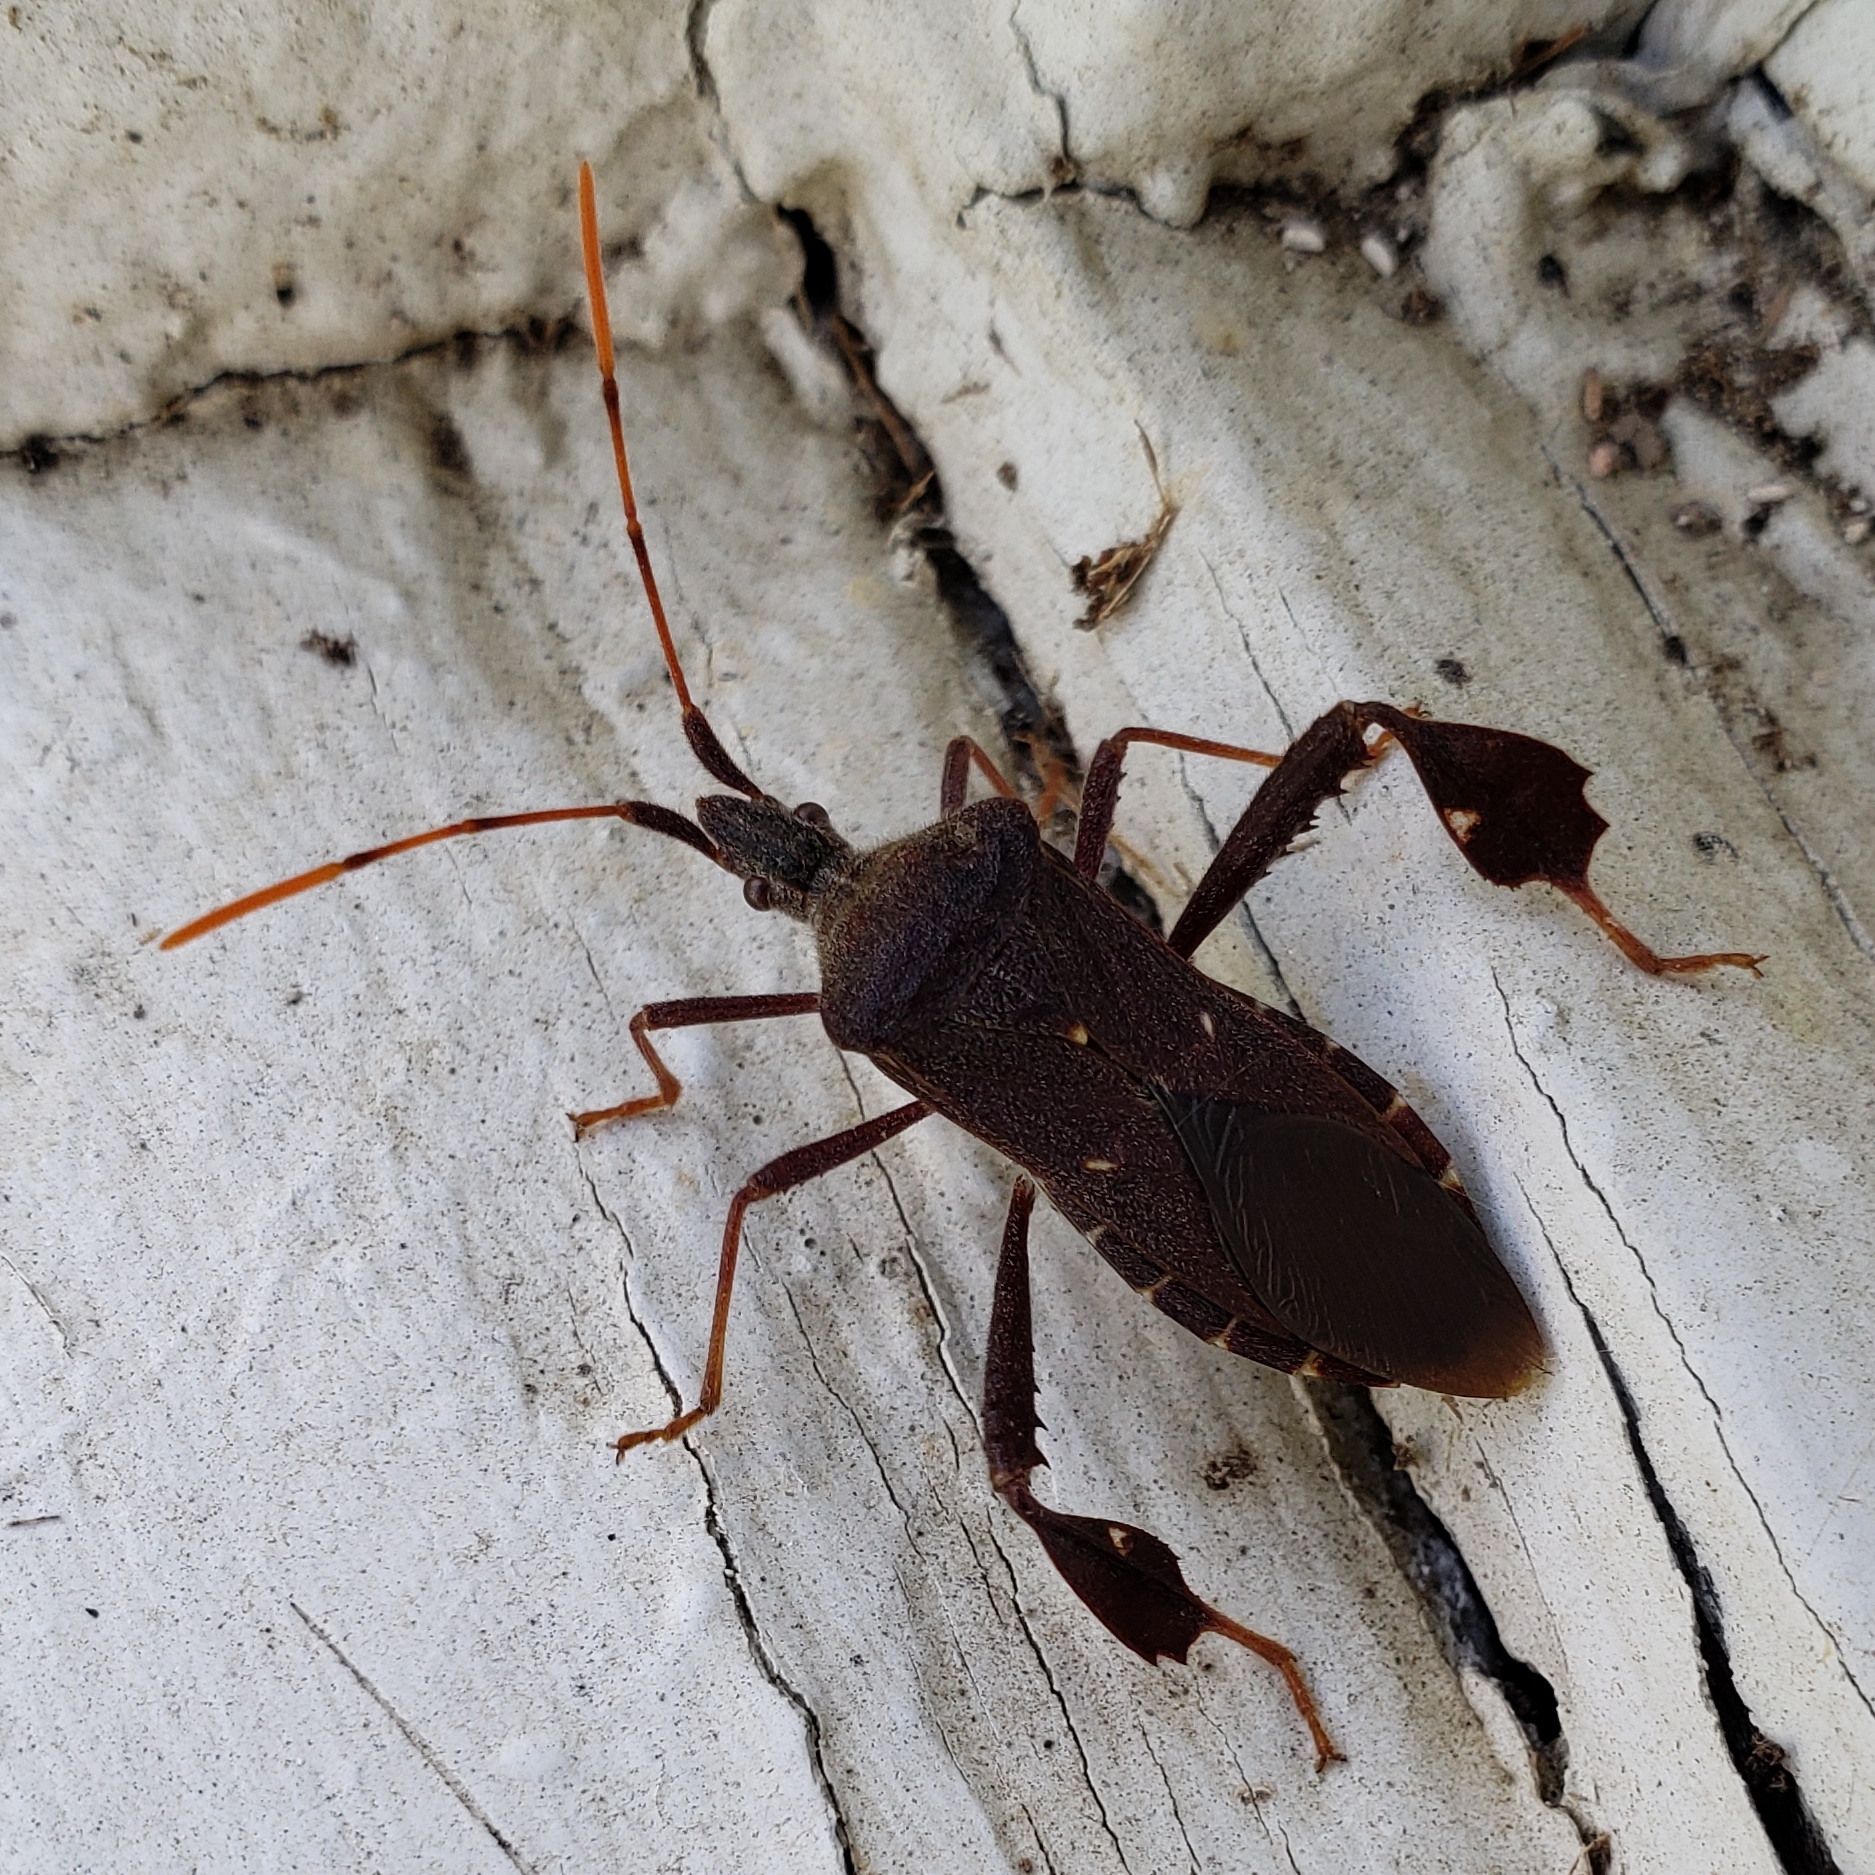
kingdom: Animalia
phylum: Arthropoda
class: Insecta
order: Hemiptera
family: Coreidae
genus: Leptoglossus
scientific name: Leptoglossus oppositus
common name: Northern leaf-footed bug
